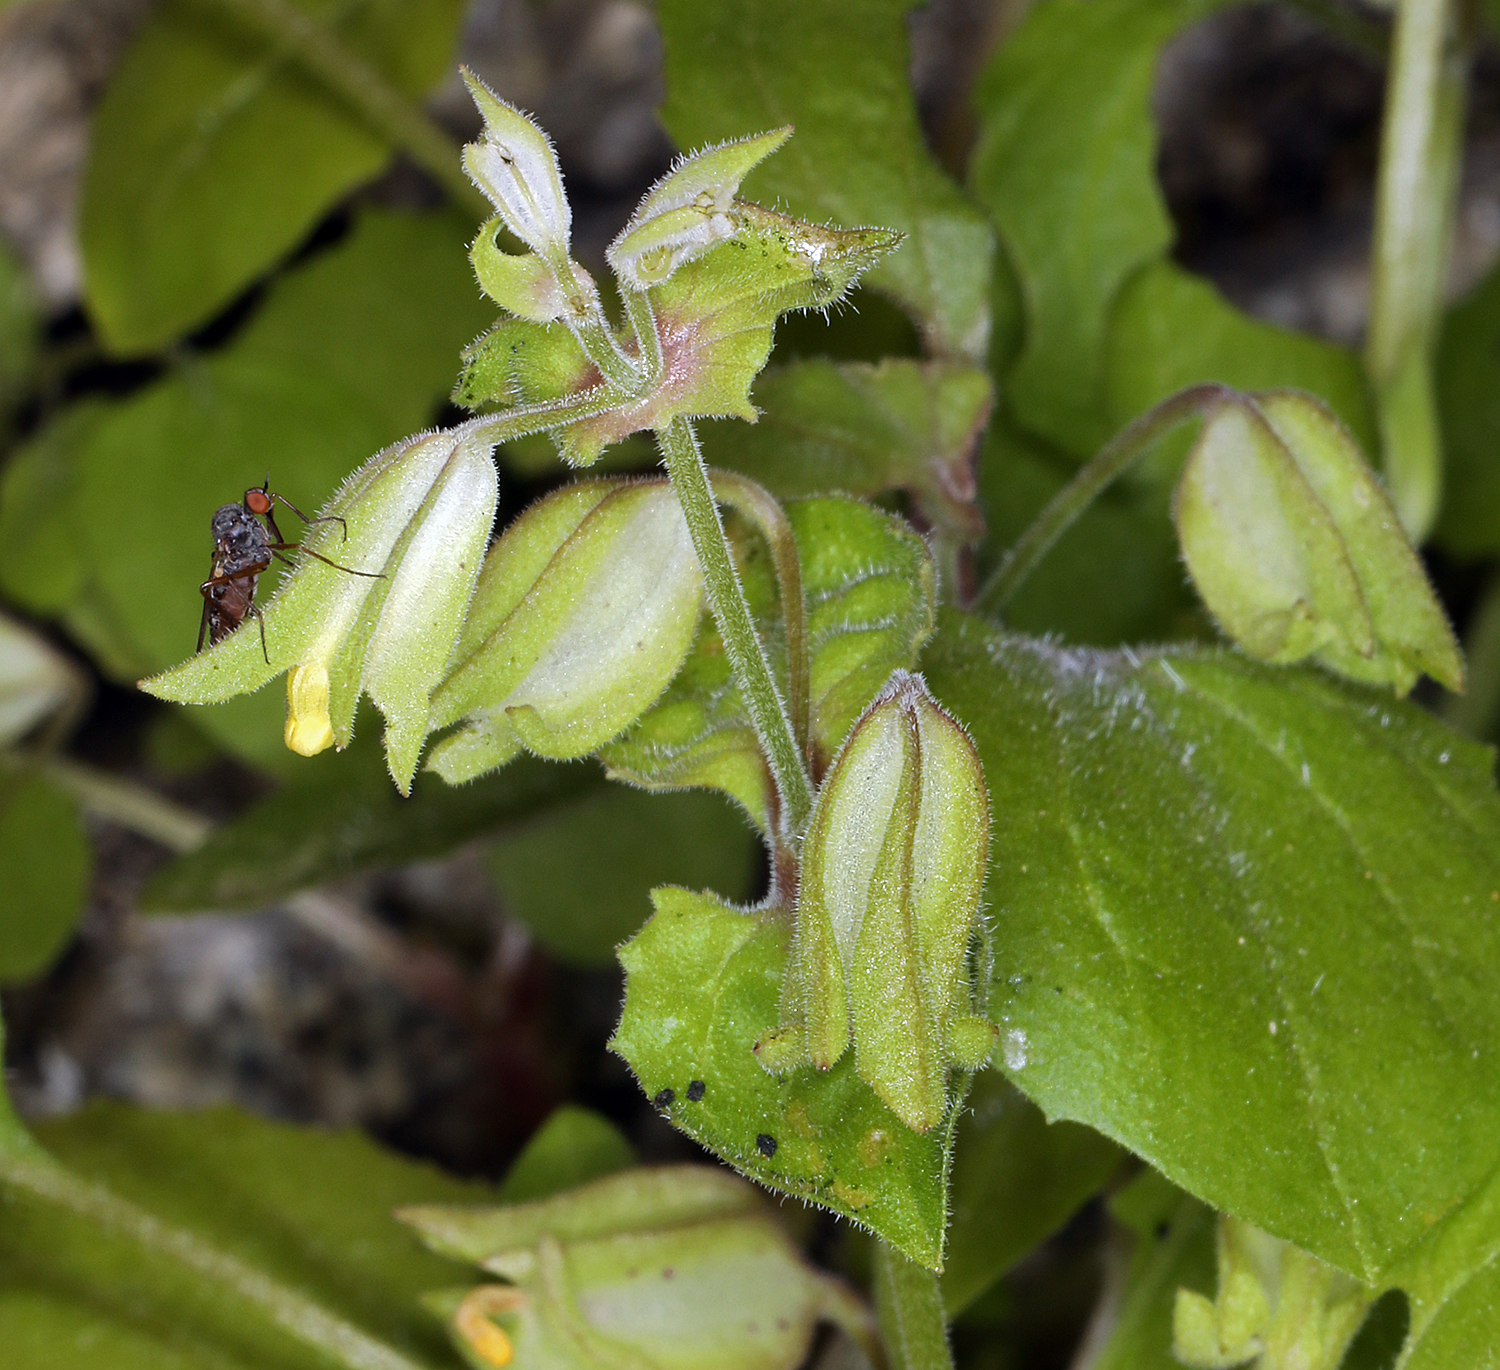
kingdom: Plantae
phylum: Tracheophyta
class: Magnoliopsida
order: Lamiales
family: Phrymaceae
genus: Erythranthe
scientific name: Erythranthe bergeri
